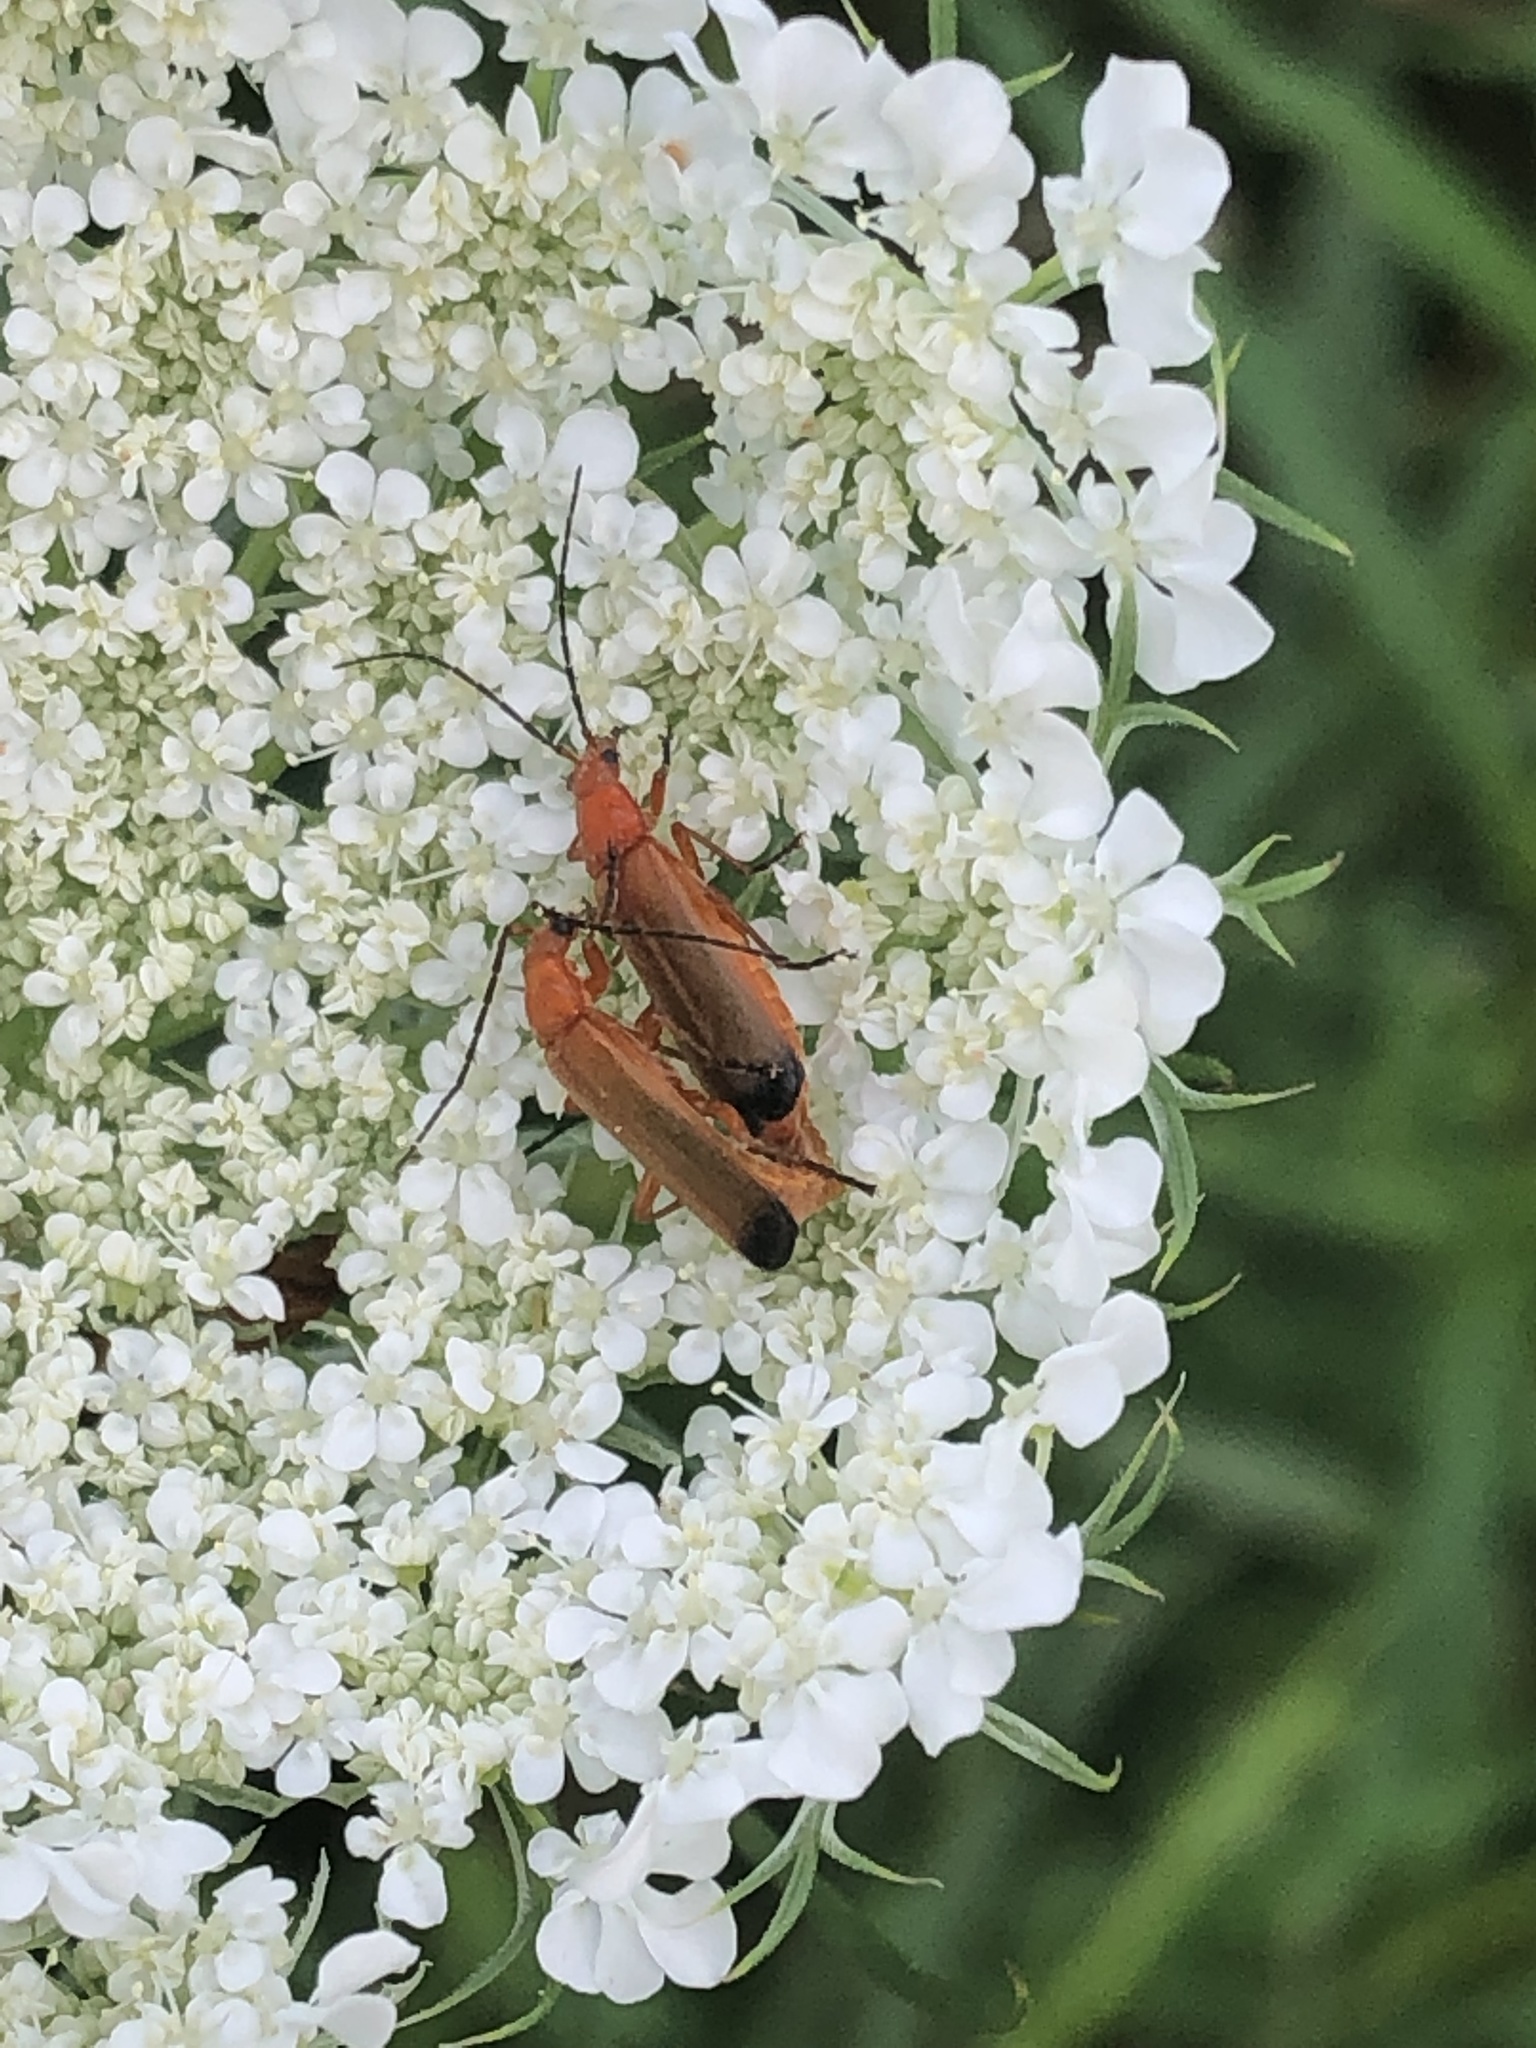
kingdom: Animalia
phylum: Arthropoda
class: Insecta
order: Coleoptera
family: Cantharidae
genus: Rhagonycha
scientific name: Rhagonycha fulva
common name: Common red soldier beetle
